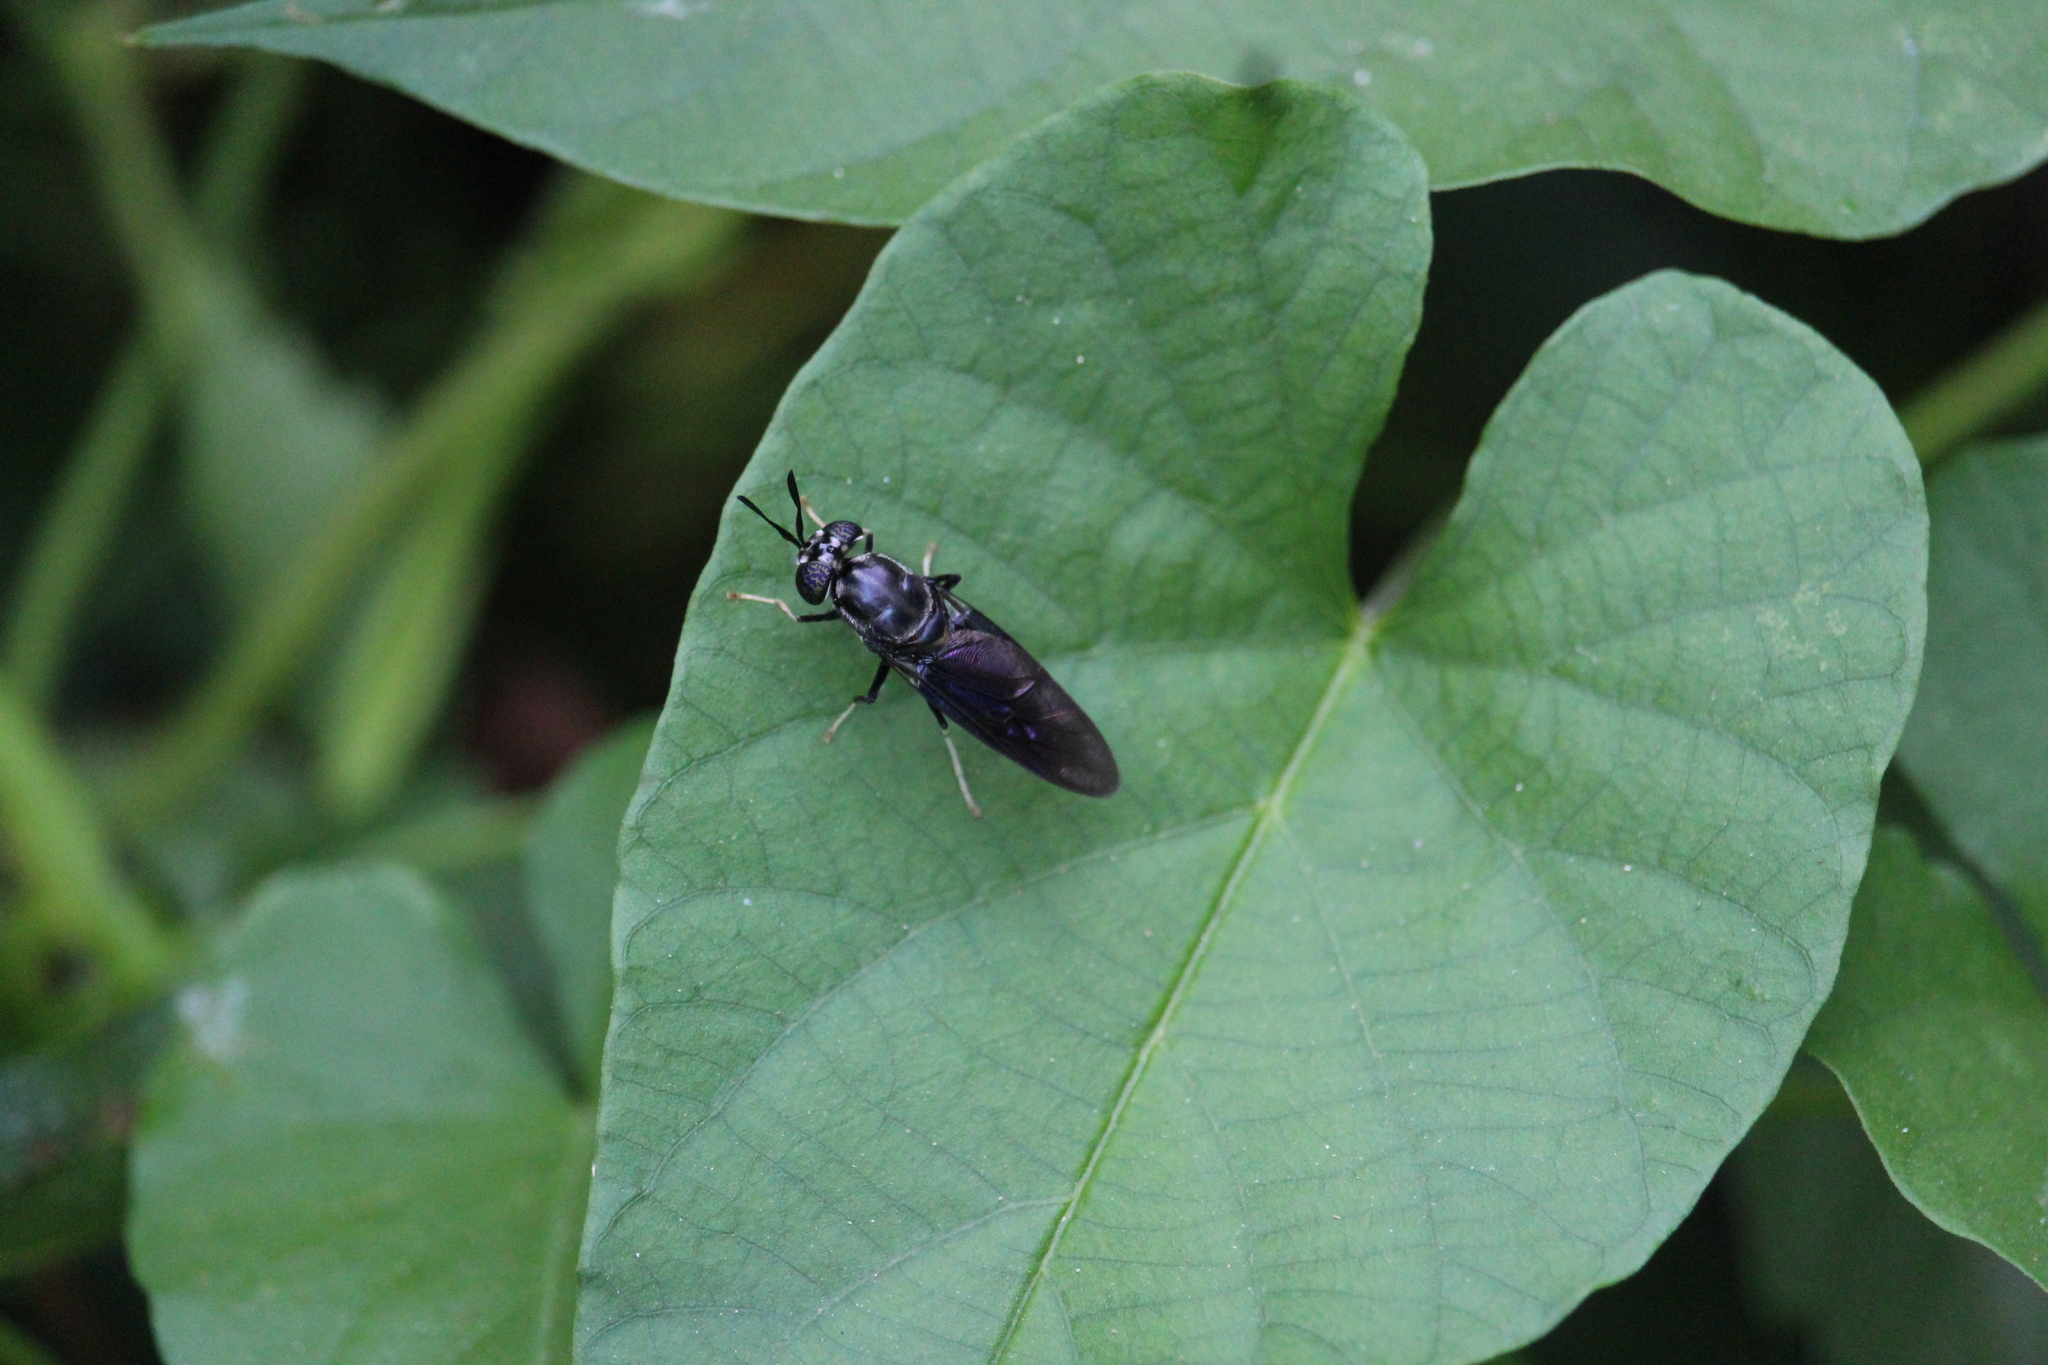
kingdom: Animalia
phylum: Arthropoda
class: Insecta
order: Diptera
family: Stratiomyidae
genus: Hermetia
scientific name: Hermetia illucens
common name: Black soldier fly
